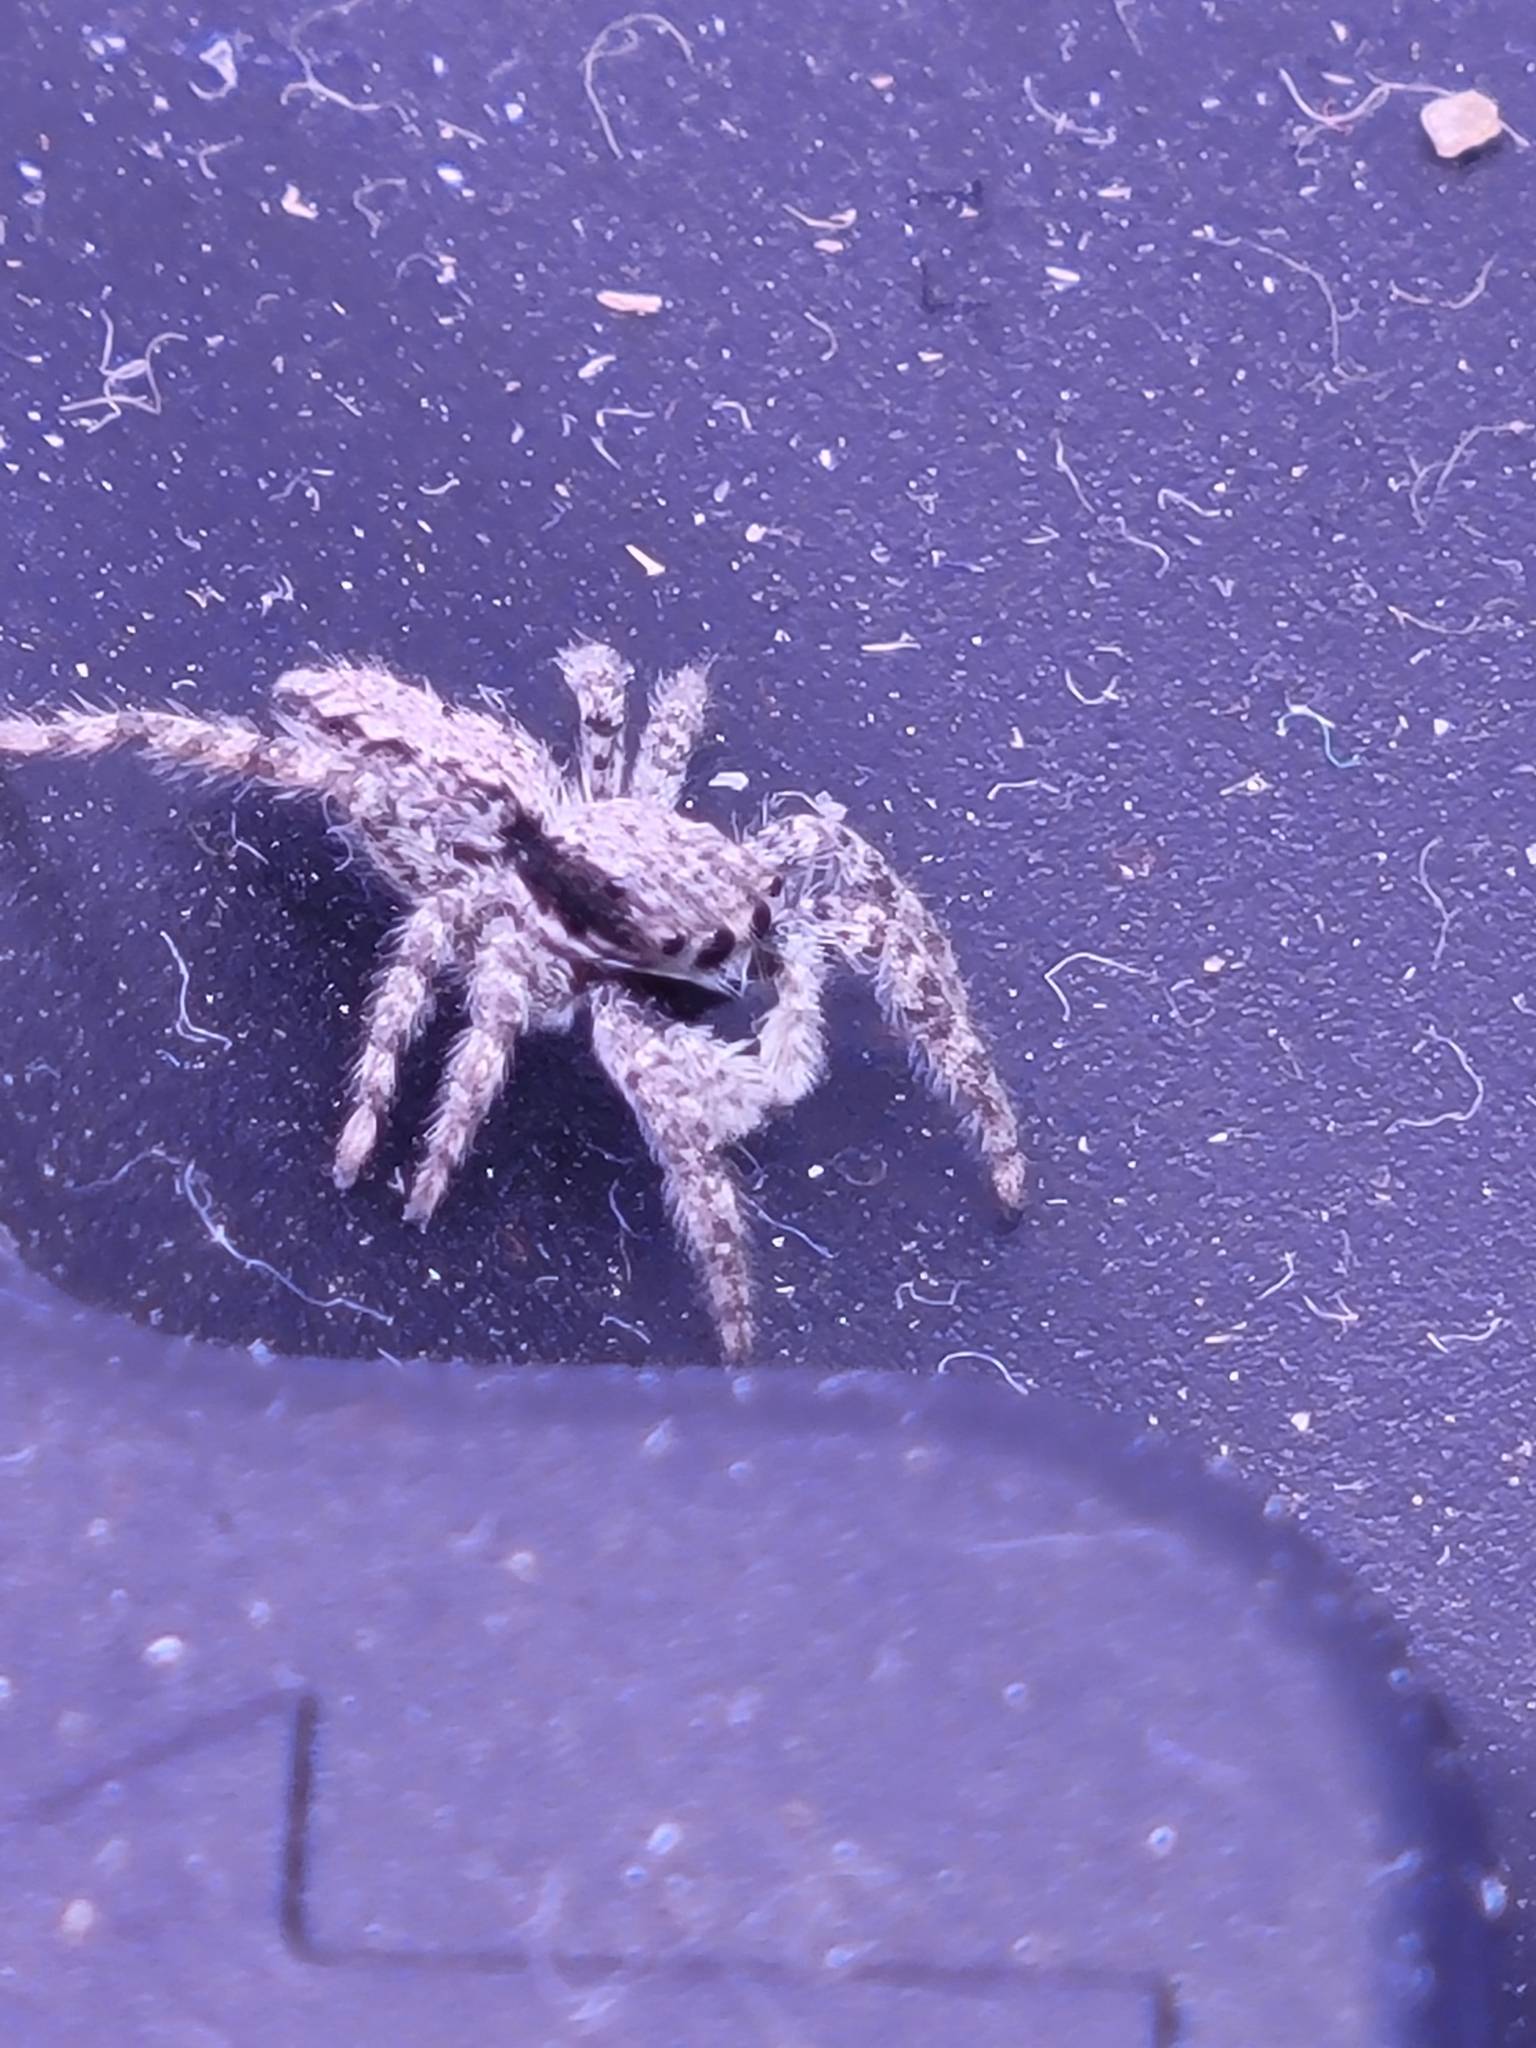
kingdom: Animalia
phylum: Arthropoda
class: Arachnida
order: Araneae
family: Salticidae
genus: Platycryptus
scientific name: Platycryptus californicus
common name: Jumping spiders
